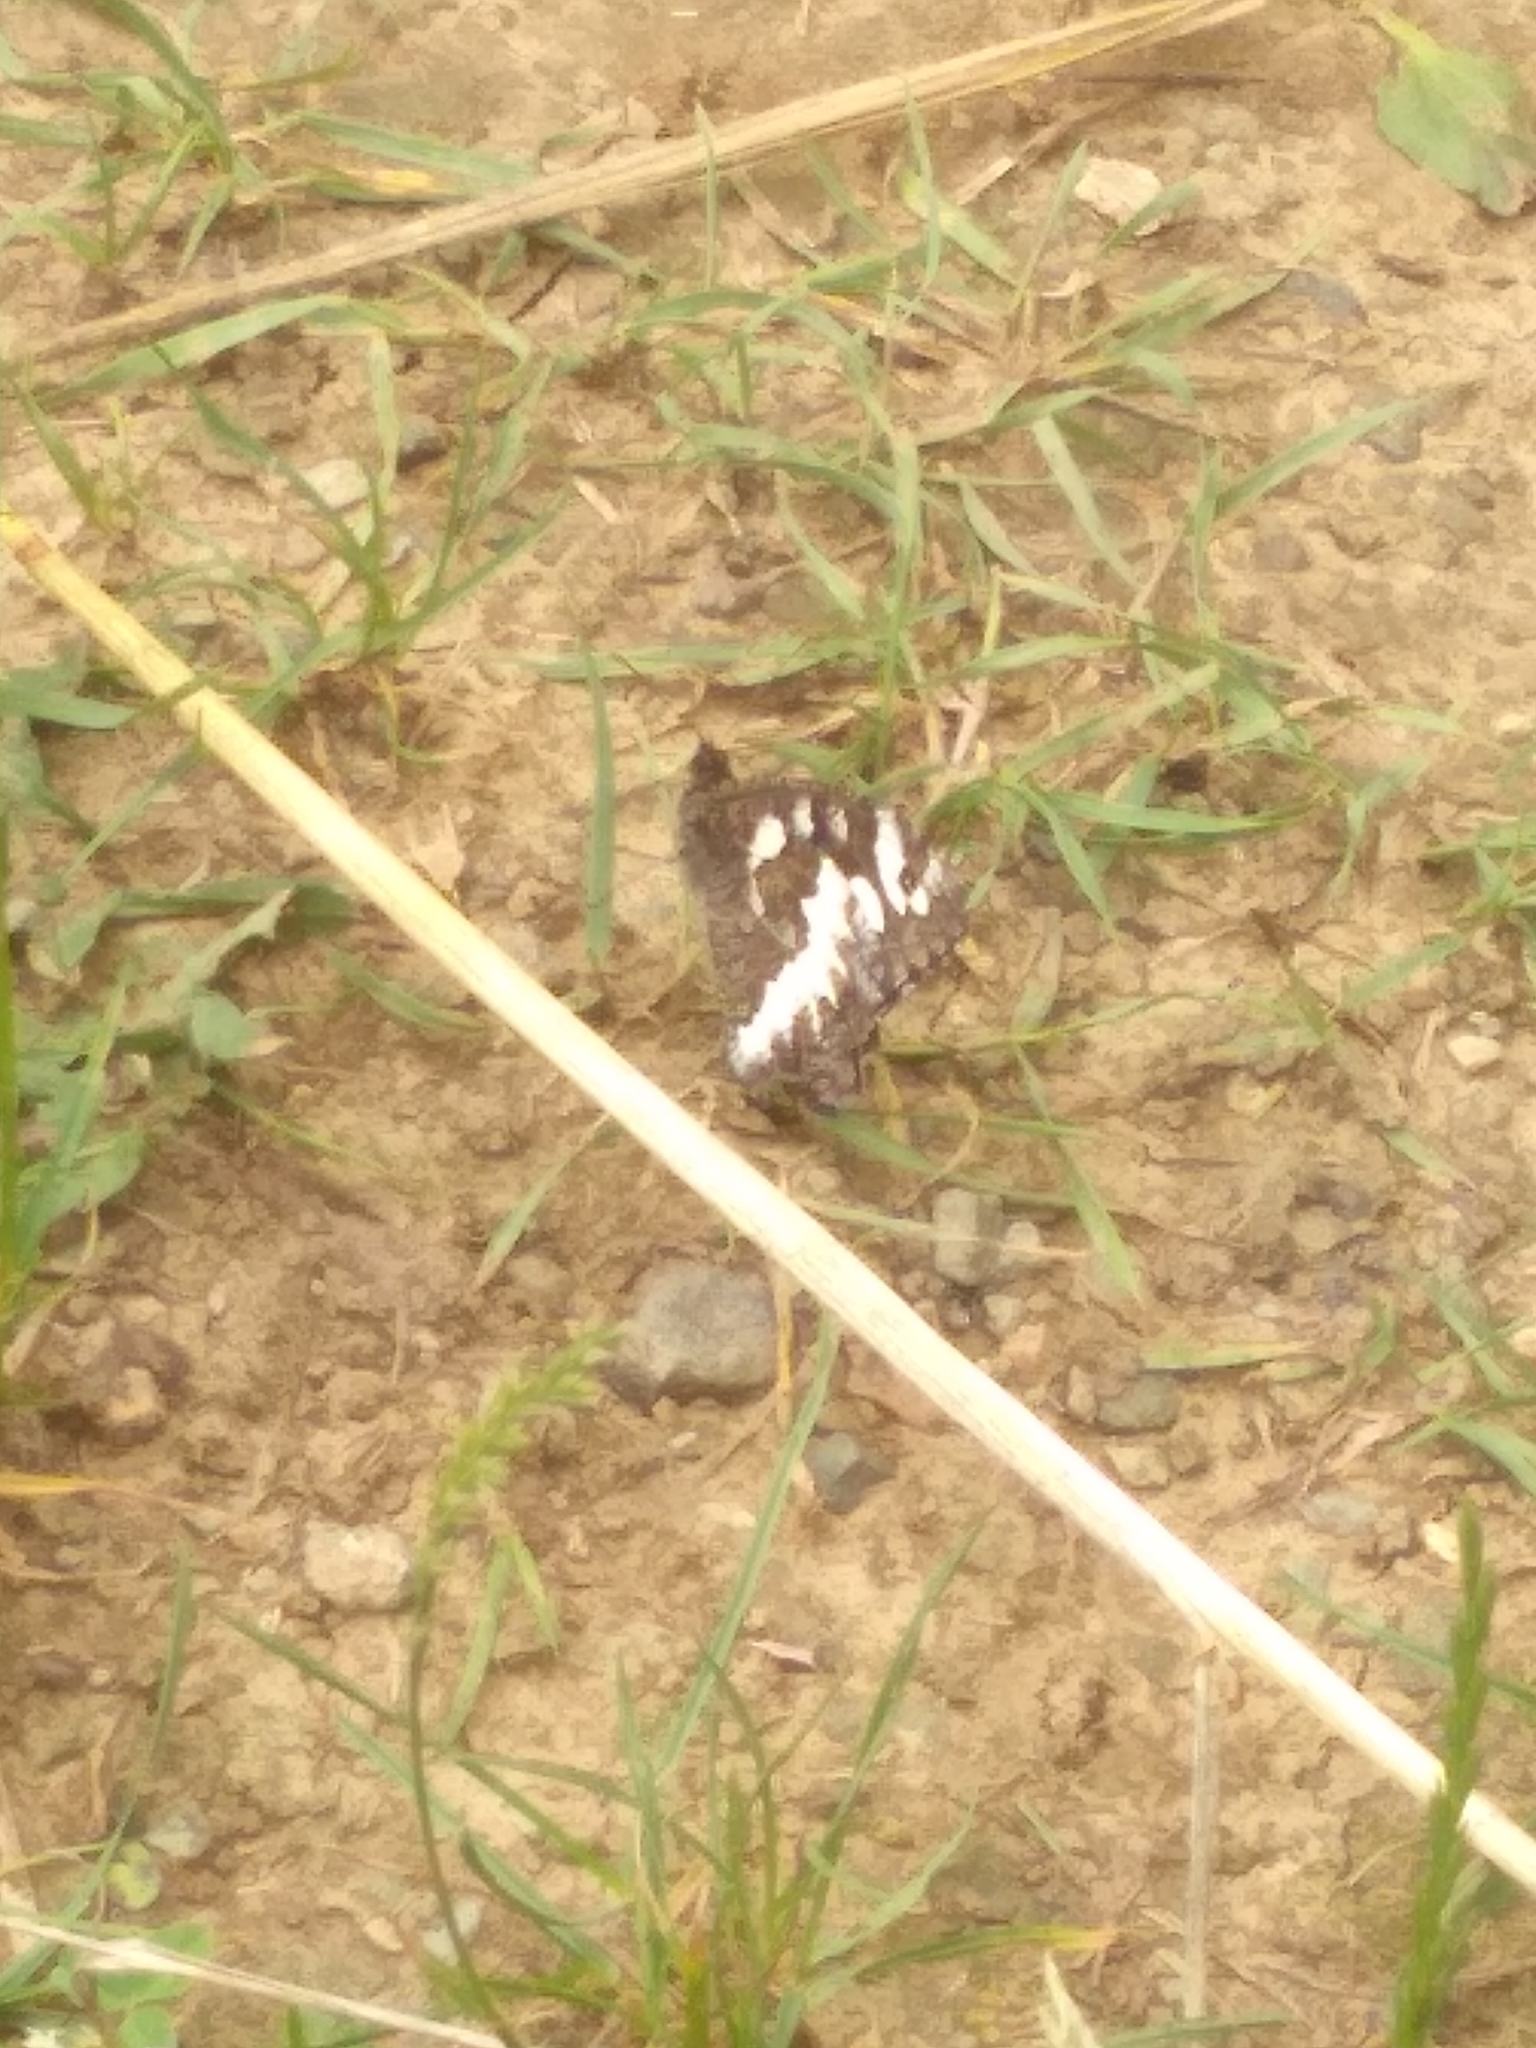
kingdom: Animalia
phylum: Arthropoda
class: Insecta
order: Lepidoptera
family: Lycaenidae
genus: Loweia
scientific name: Loweia tityrus
